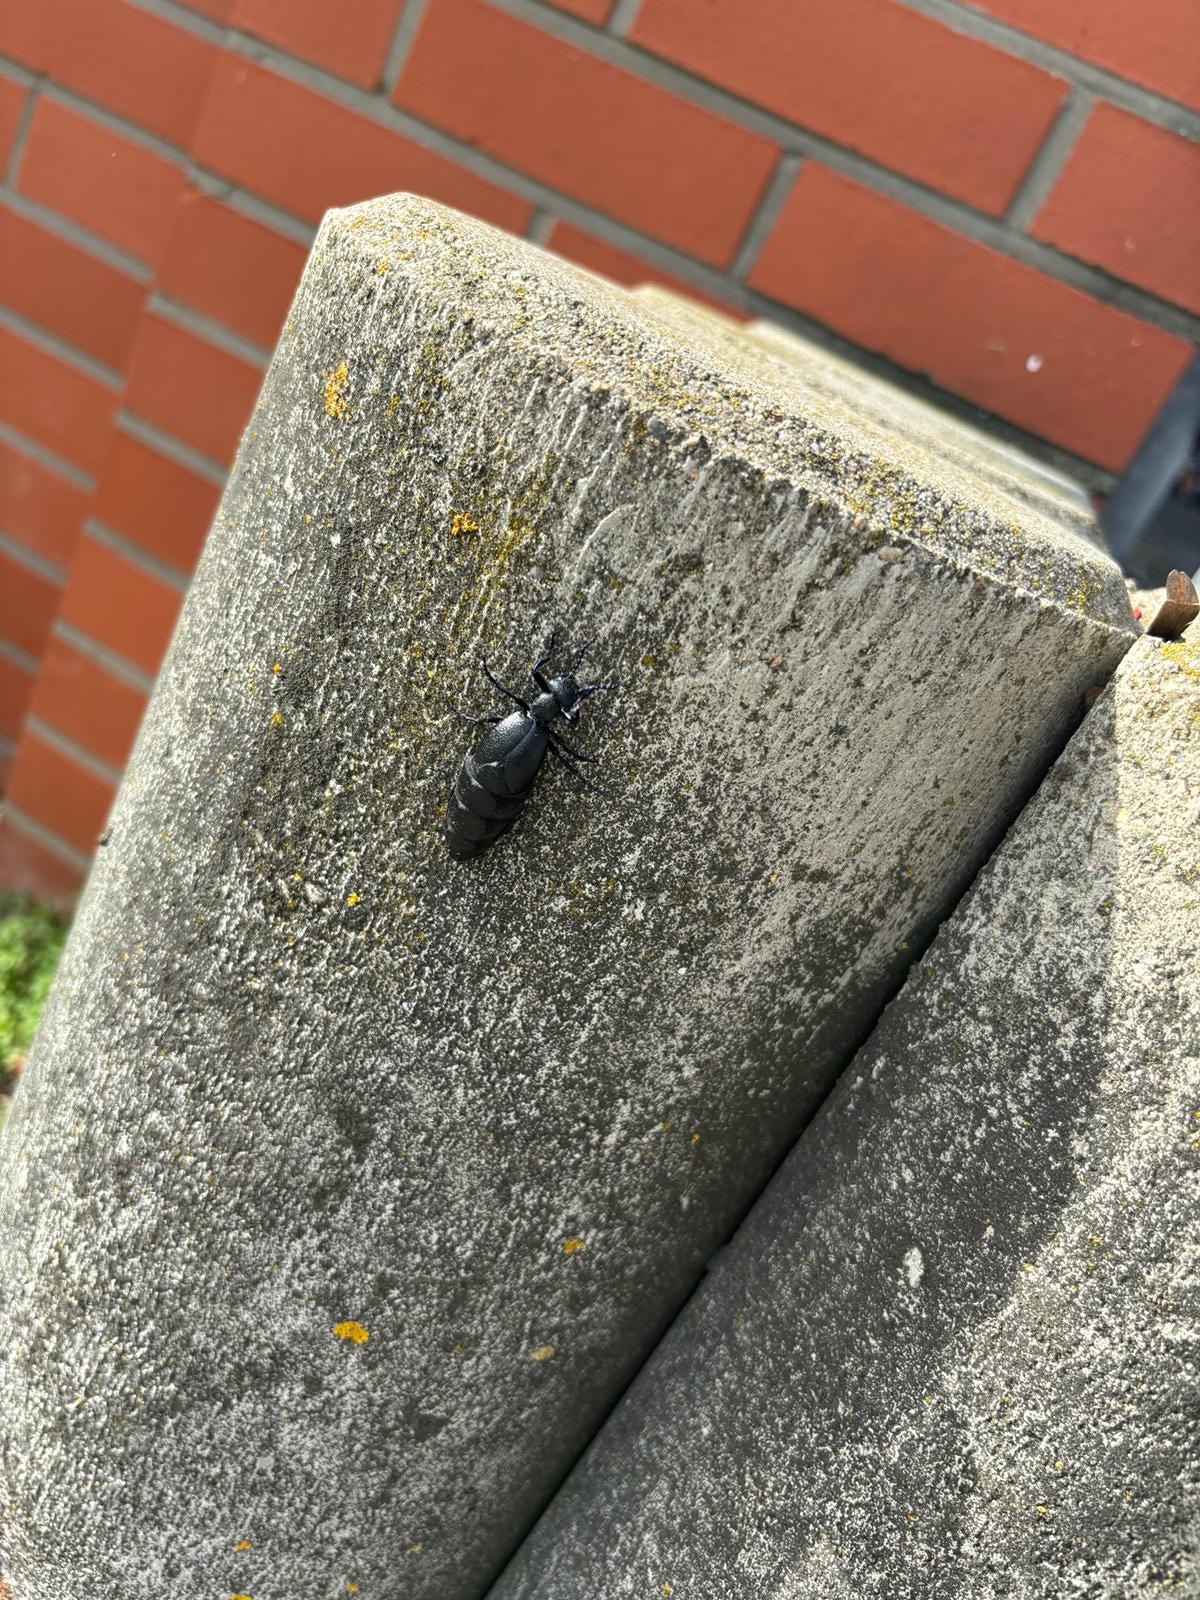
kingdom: Animalia
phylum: Arthropoda
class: Insecta
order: Coleoptera
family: Meloidae
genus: Meloe
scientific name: Meloe proscarabaeus
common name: Black oil-beetle
